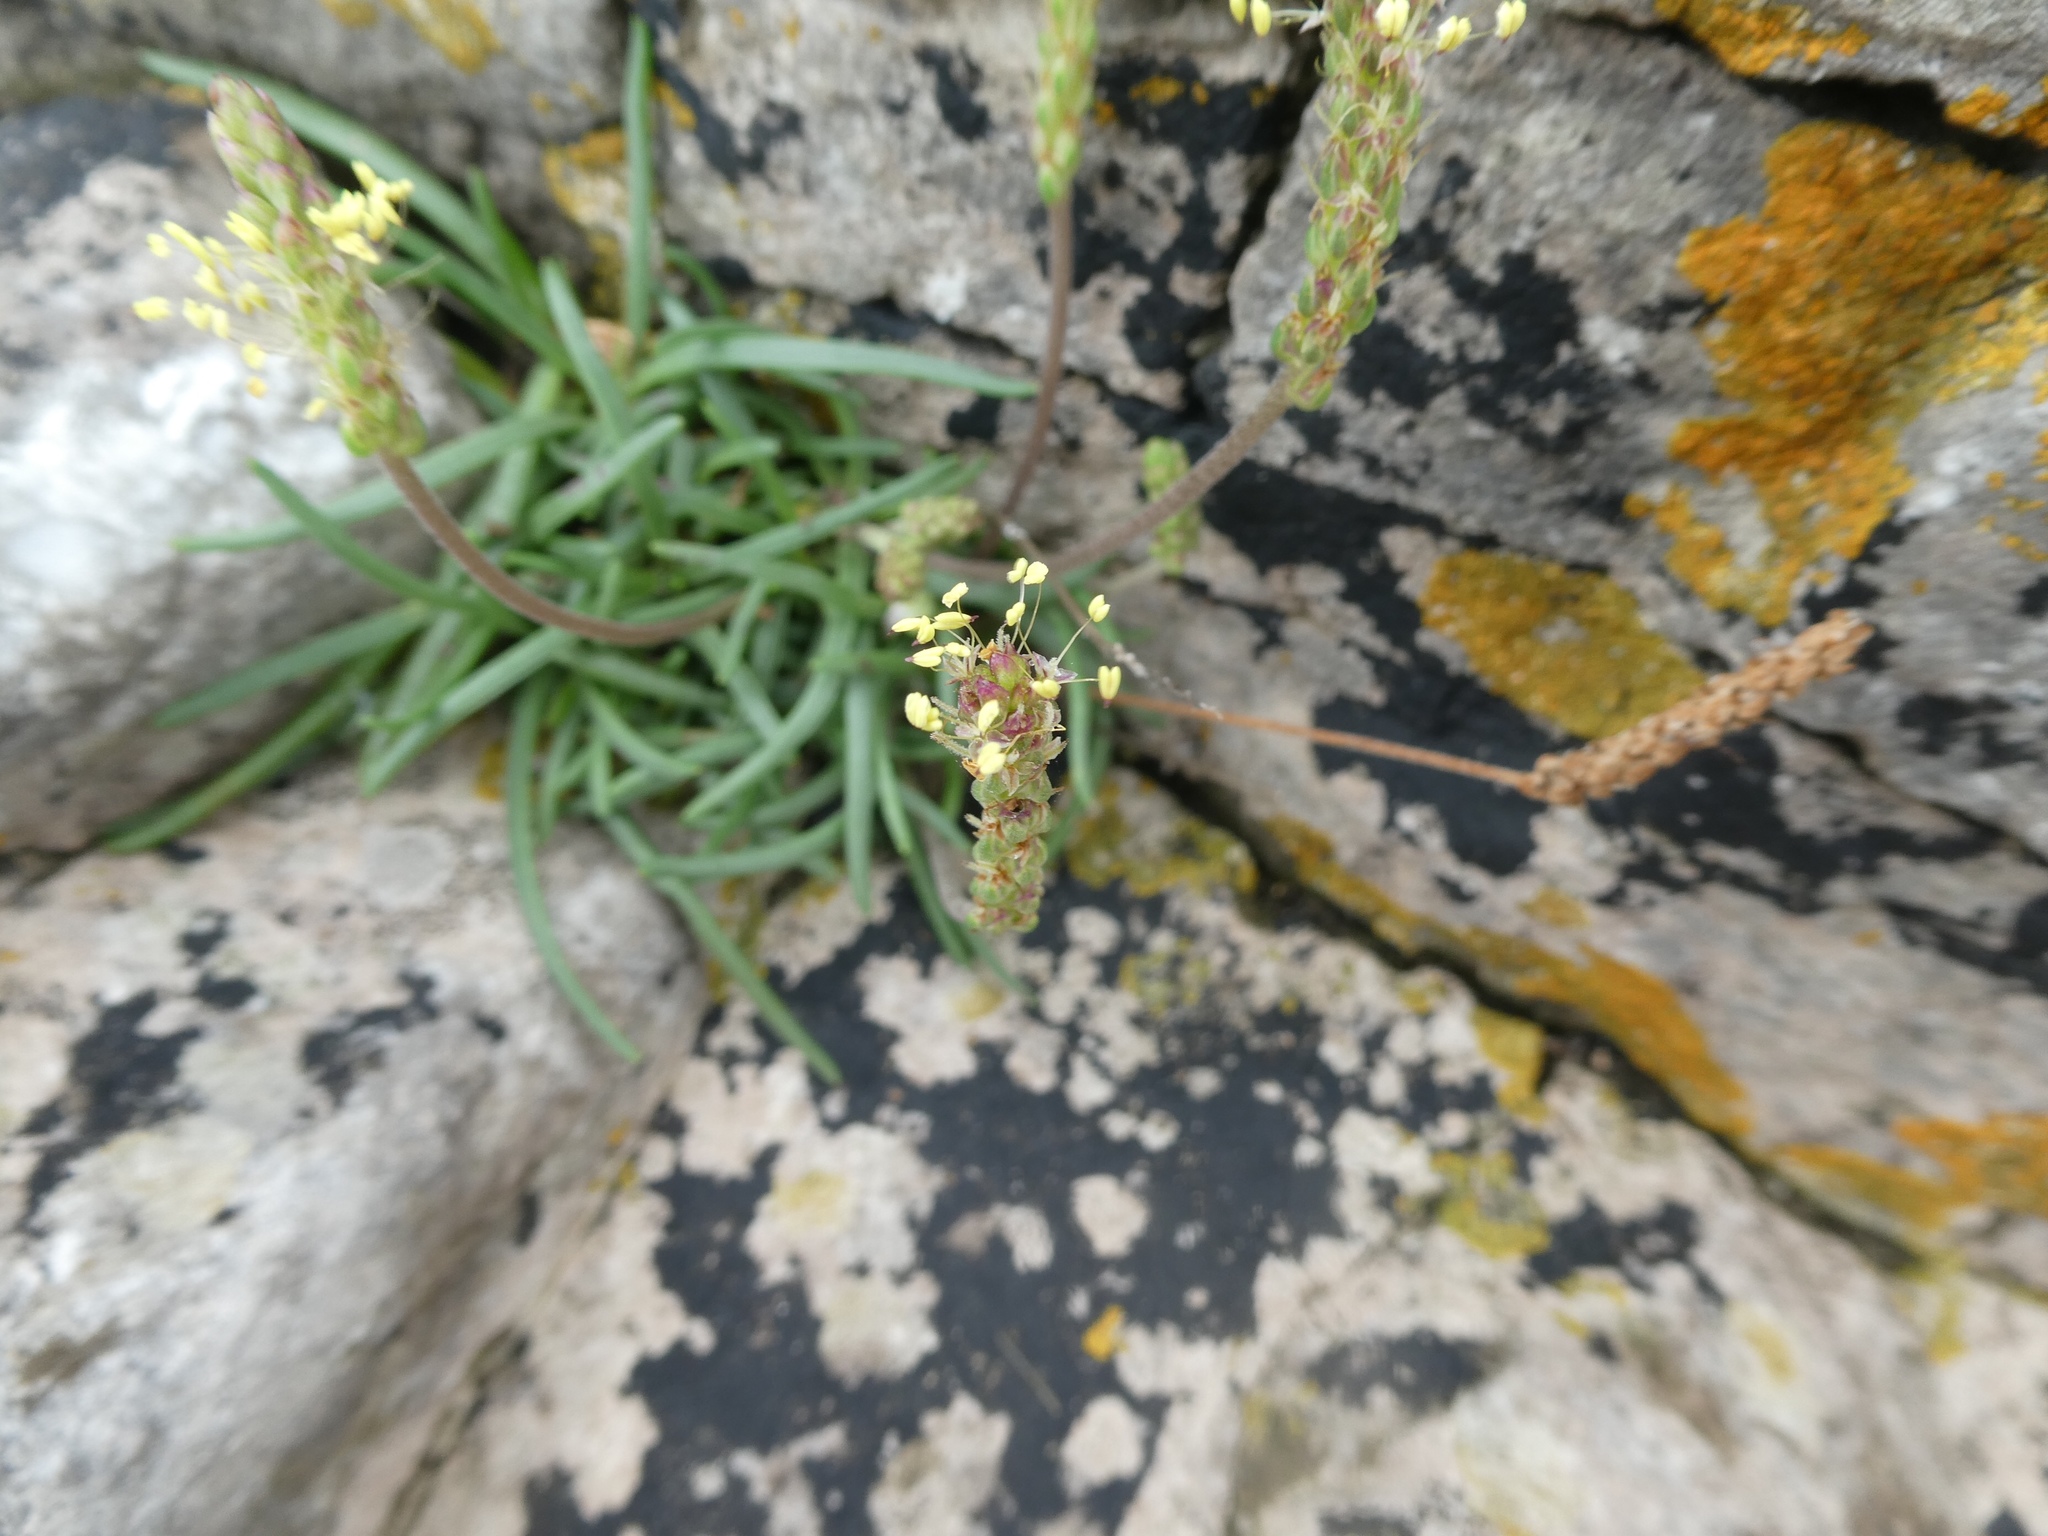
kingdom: Plantae
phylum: Tracheophyta
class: Magnoliopsida
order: Lamiales
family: Plantaginaceae
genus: Plantago
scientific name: Plantago maritima
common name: Sea plantain
